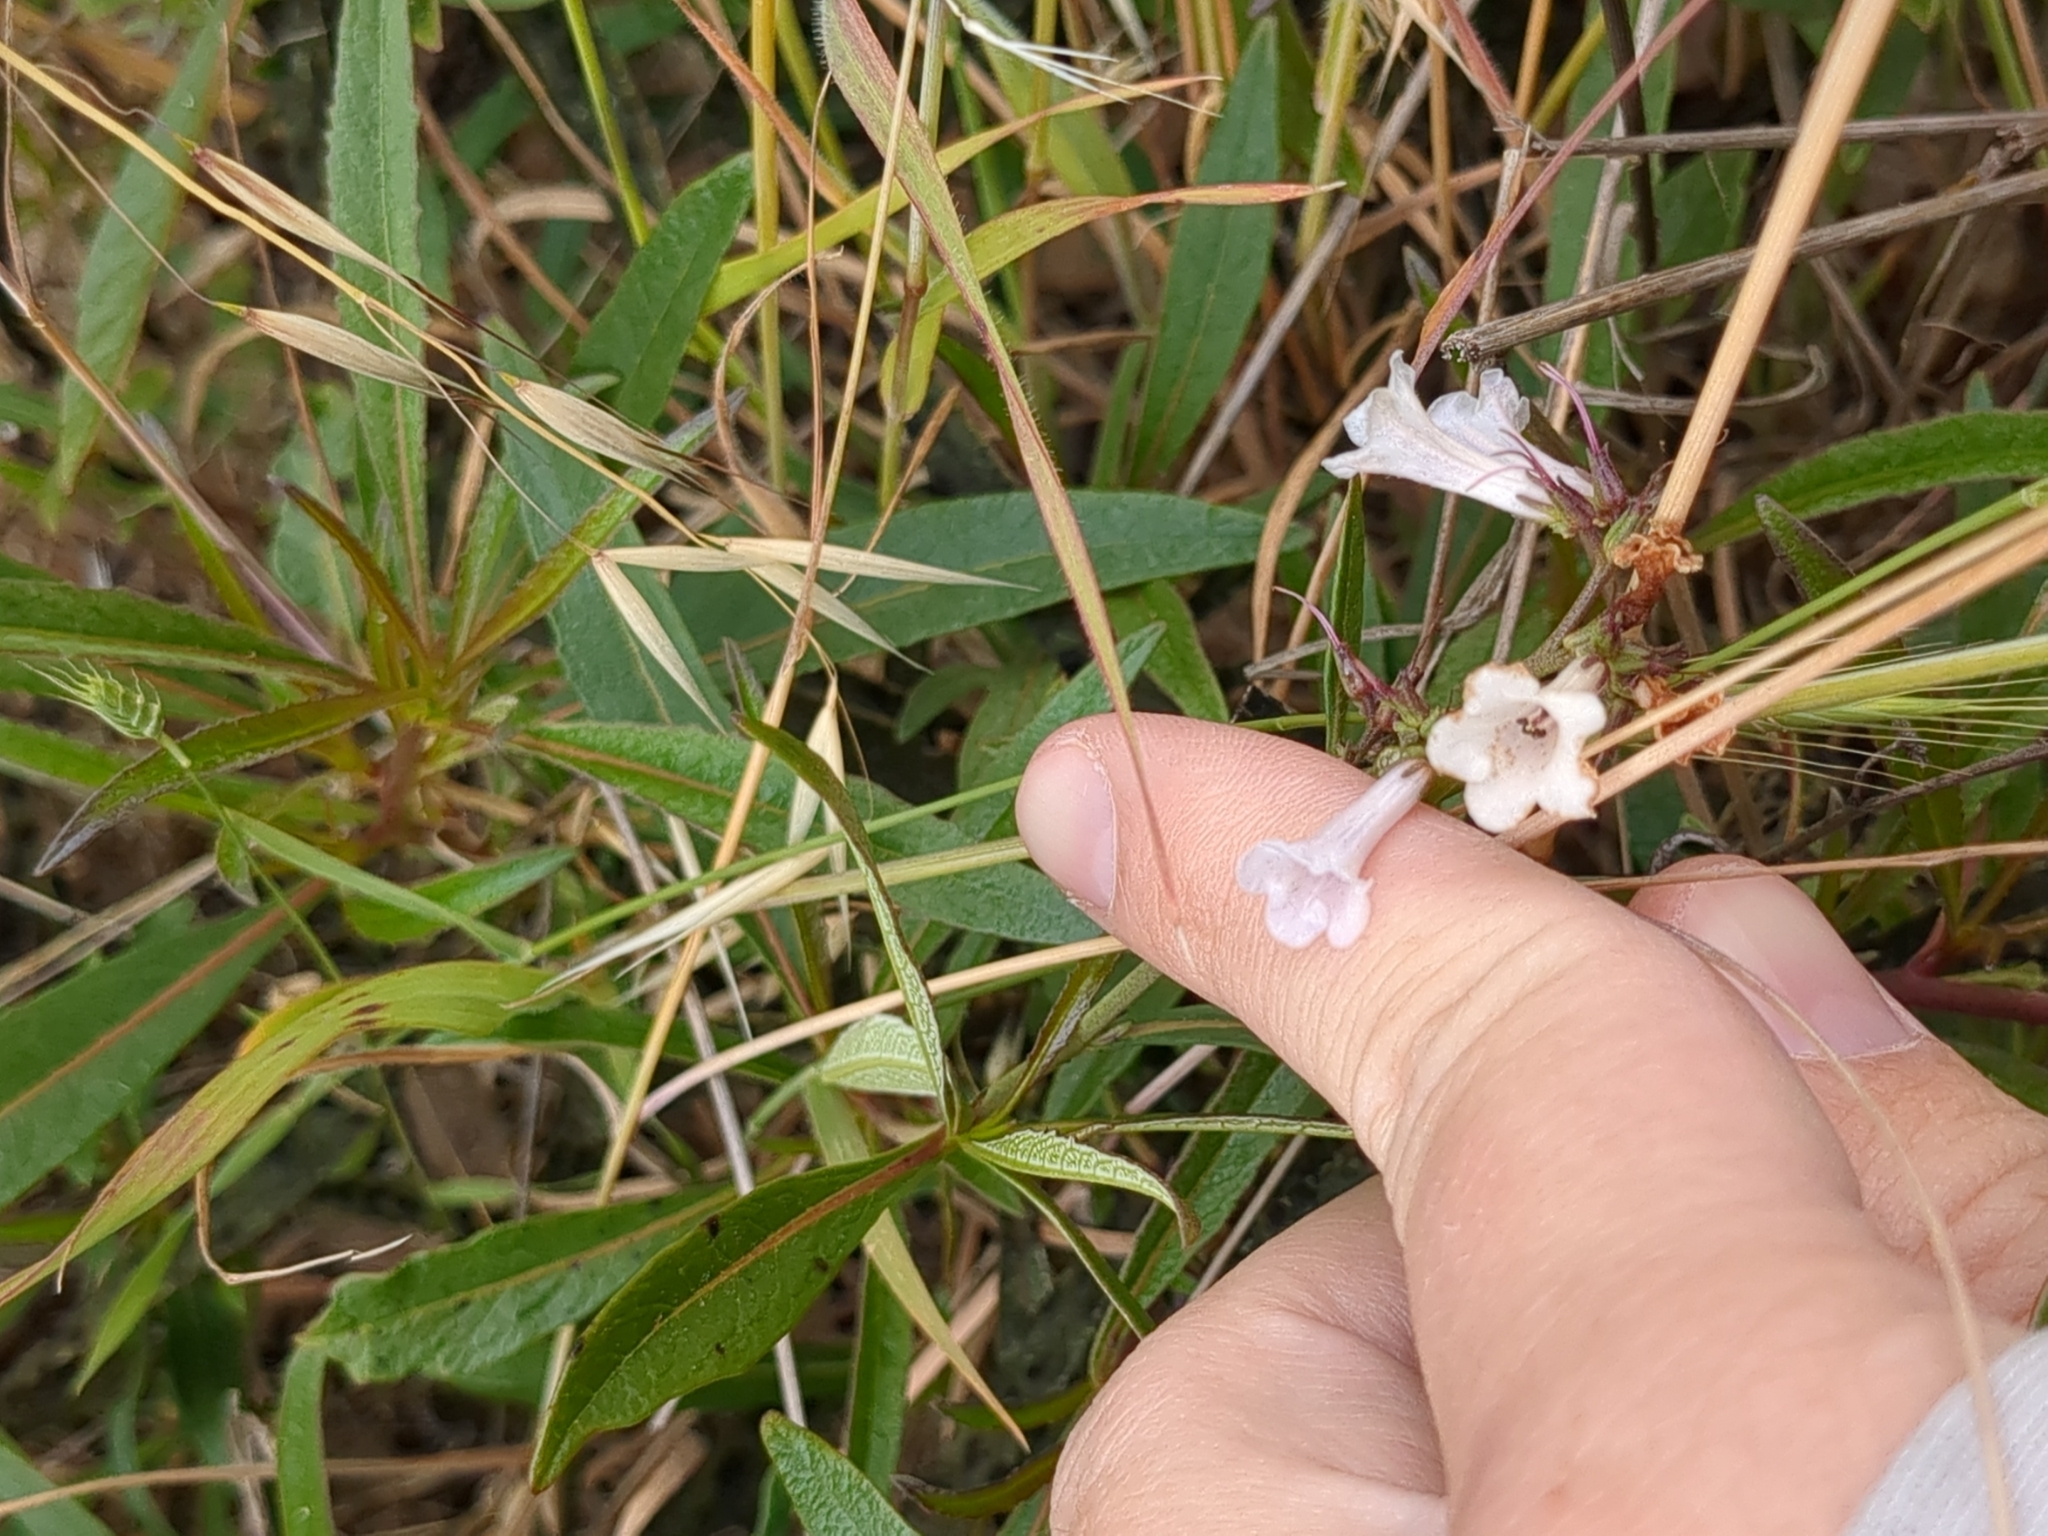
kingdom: Plantae
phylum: Tracheophyta
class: Magnoliopsida
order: Boraginales
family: Namaceae
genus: Eriodictyon
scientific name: Eriodictyon californicum
